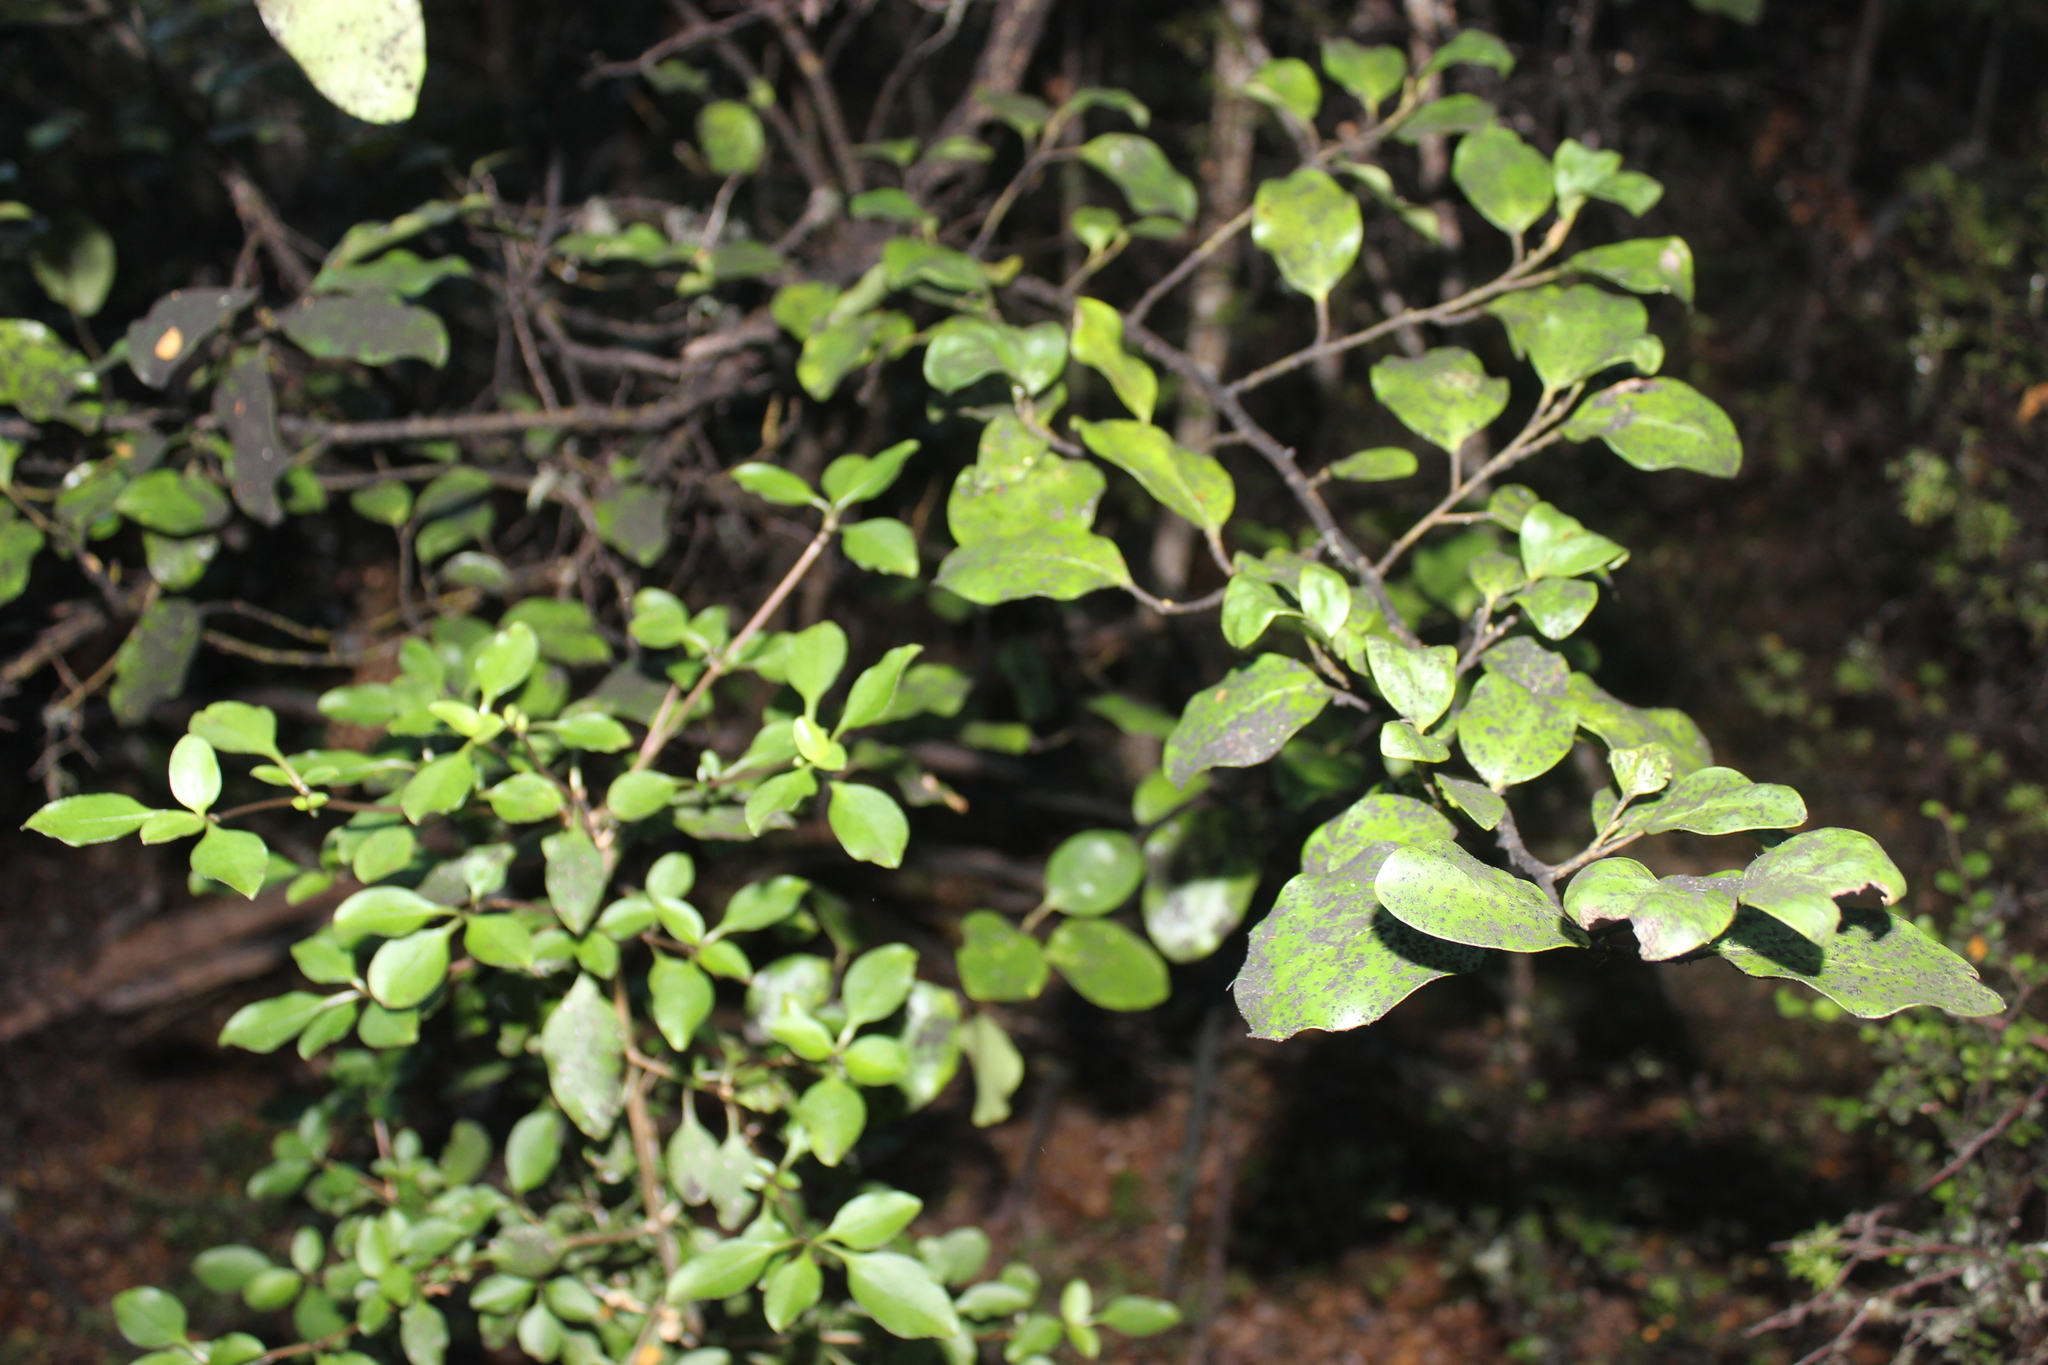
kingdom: Plantae
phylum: Tracheophyta
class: Magnoliopsida
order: Apiales
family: Griseliniaceae
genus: Griselinia
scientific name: Griselinia littoralis
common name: New zealand broadleaf
